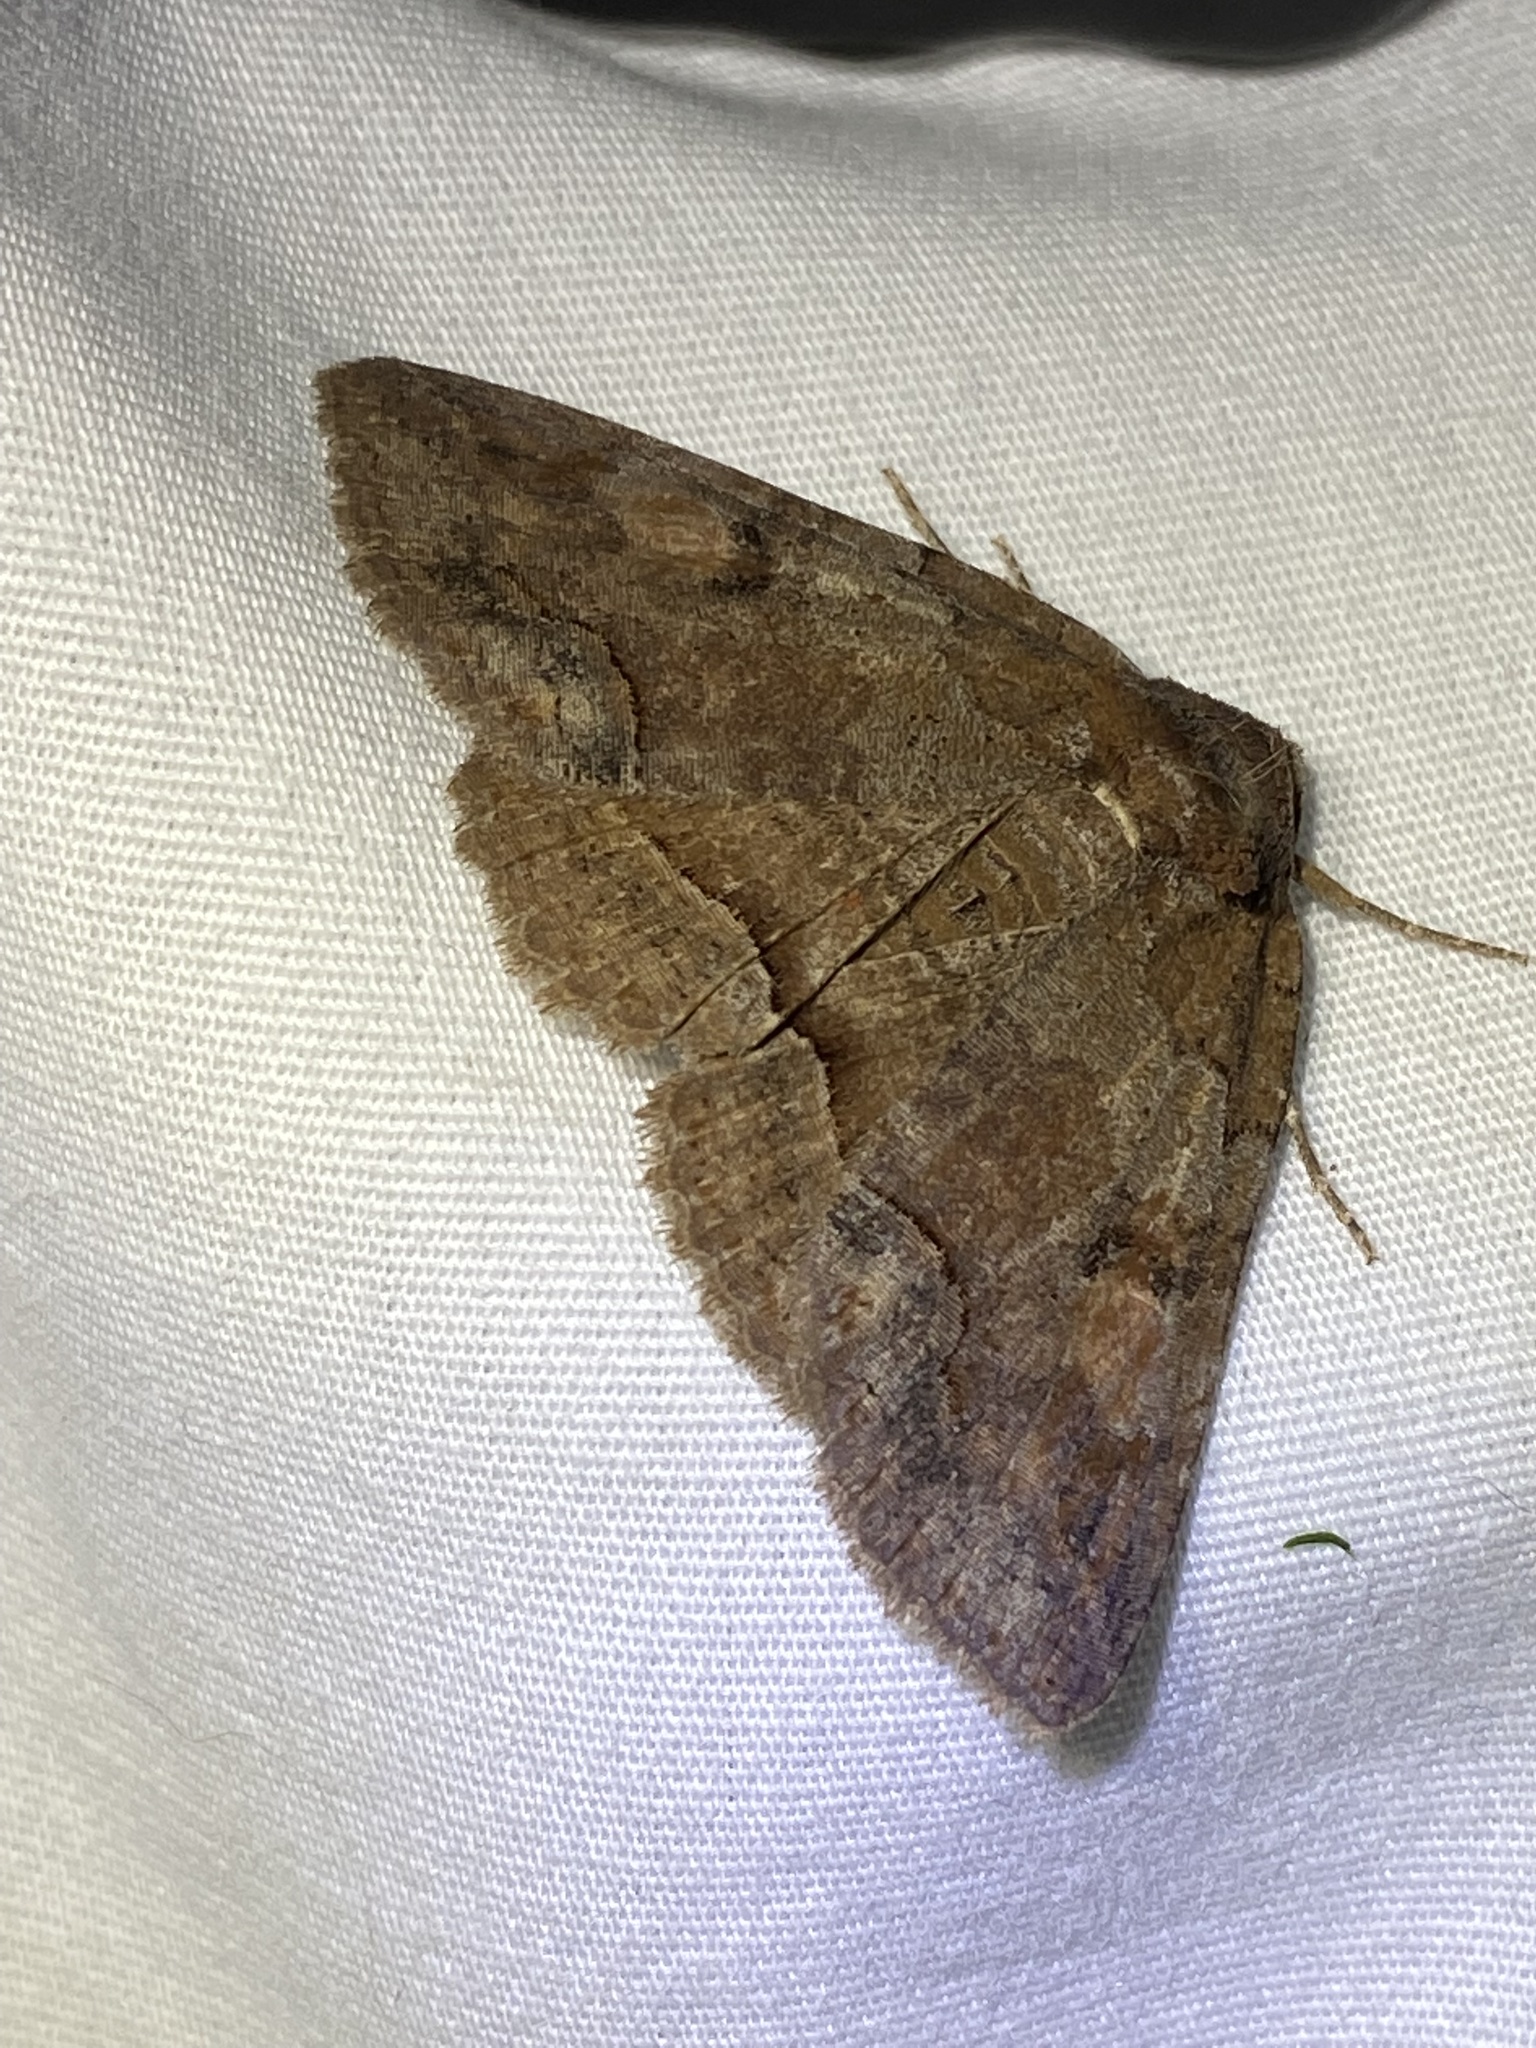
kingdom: Animalia
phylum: Arthropoda
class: Insecta
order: Lepidoptera
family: Erebidae
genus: Zale
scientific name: Zale helata
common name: Brown-spotted zale moth
